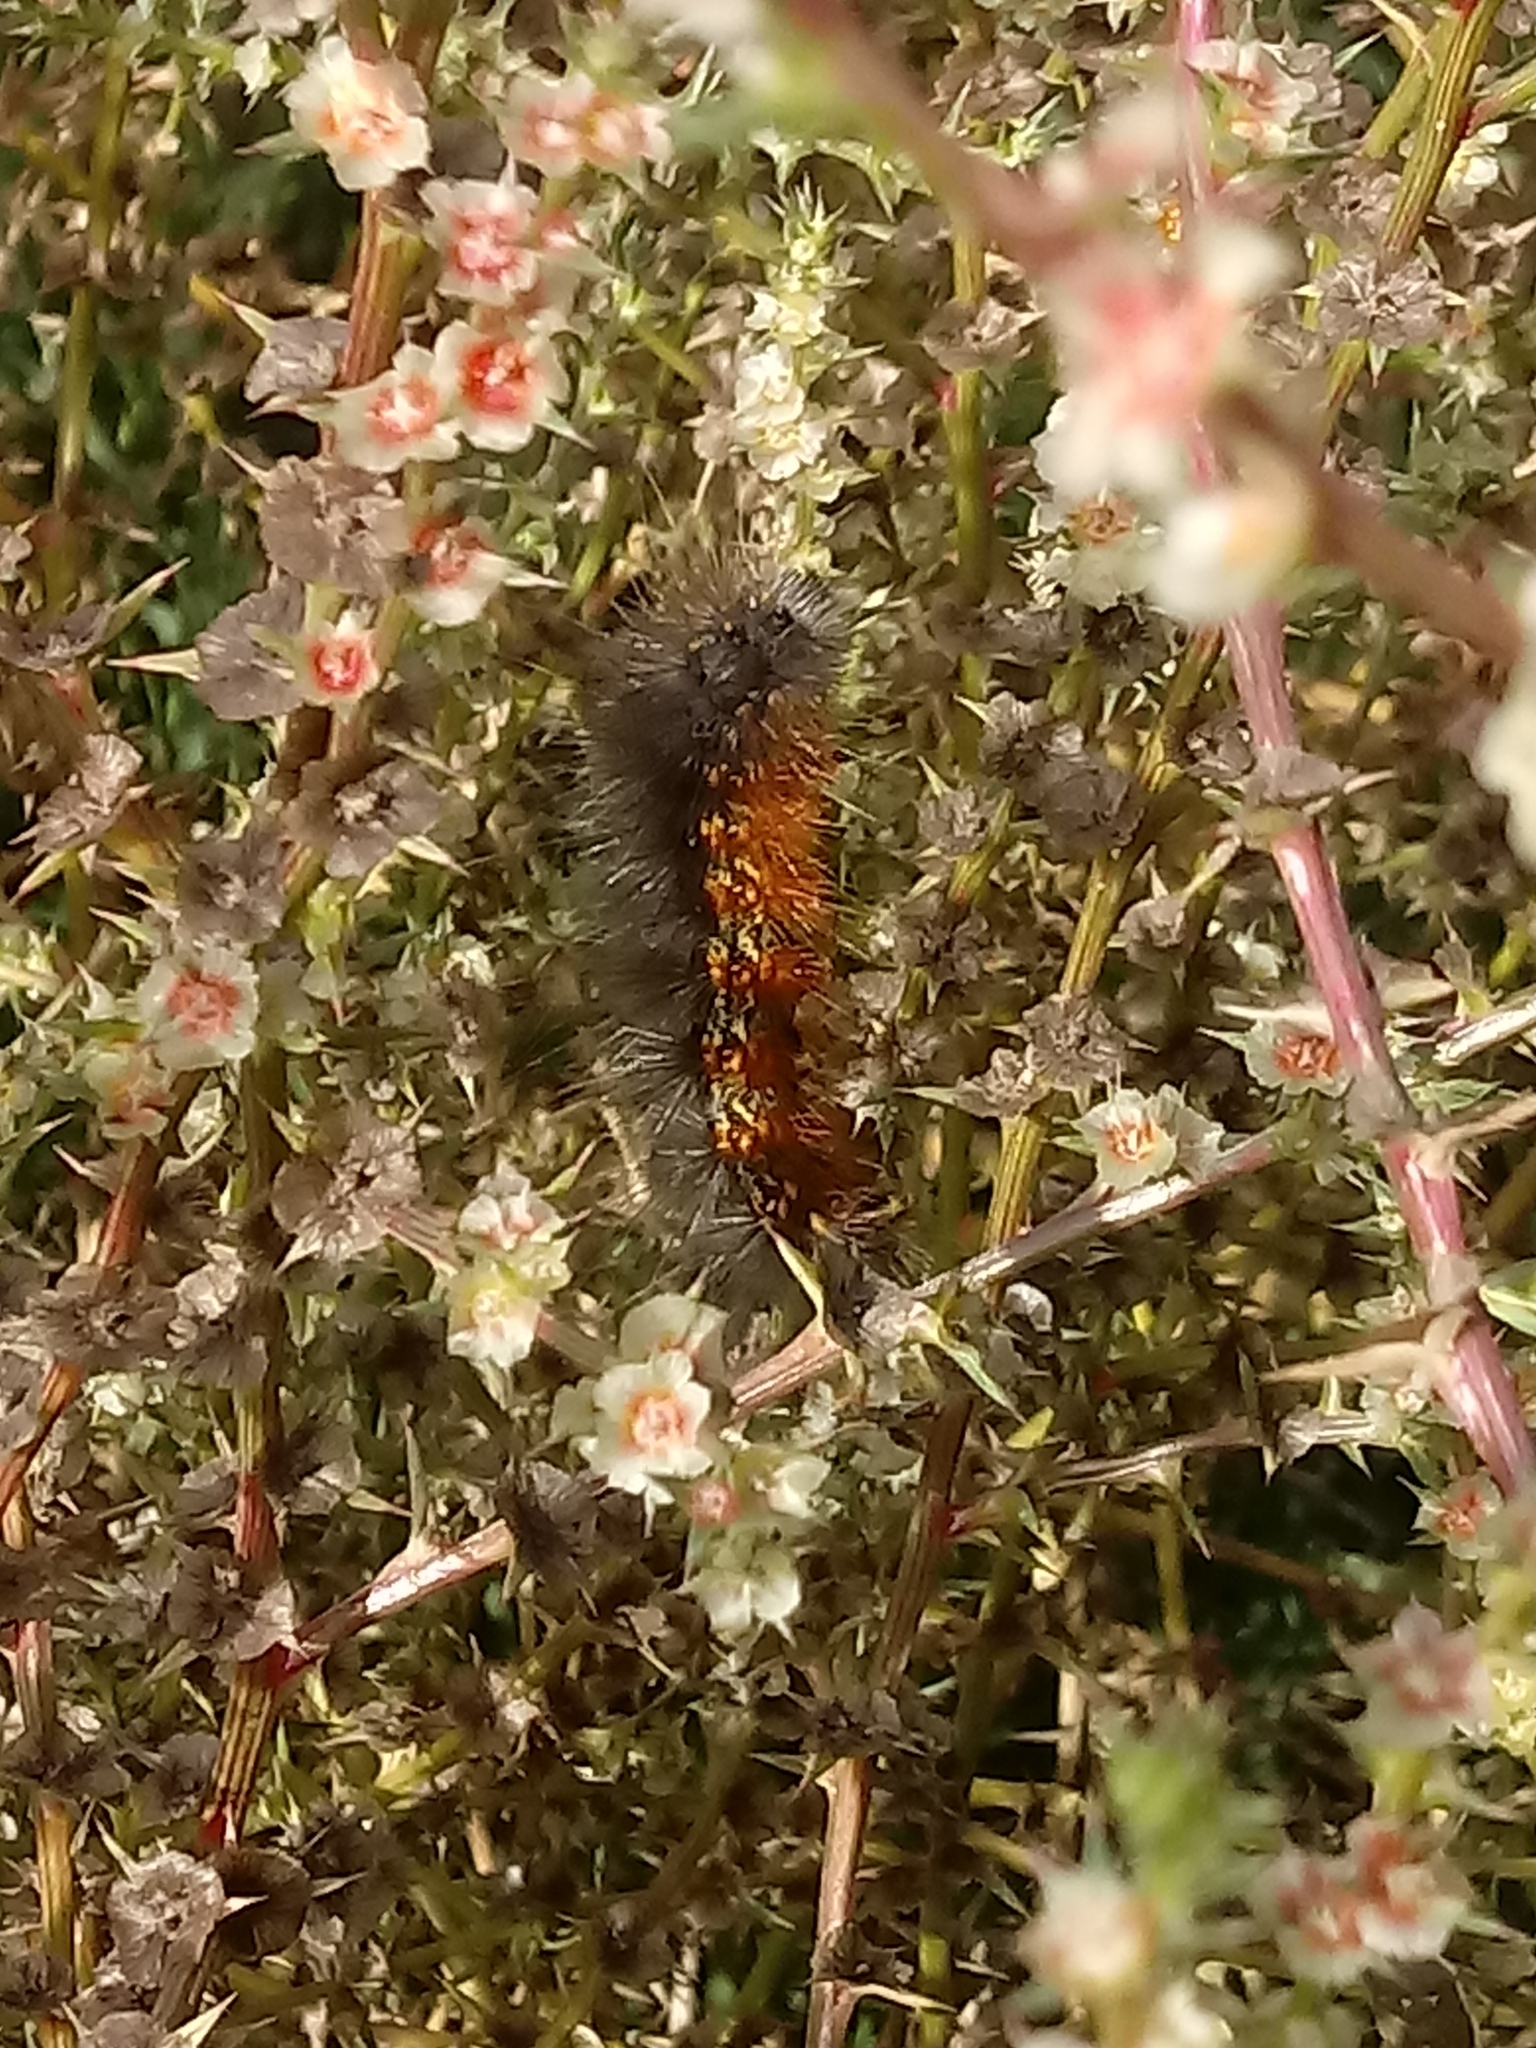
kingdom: Animalia
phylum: Arthropoda
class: Insecta
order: Lepidoptera
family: Erebidae
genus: Estigmene
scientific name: Estigmene acrea
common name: Salt marsh moth
